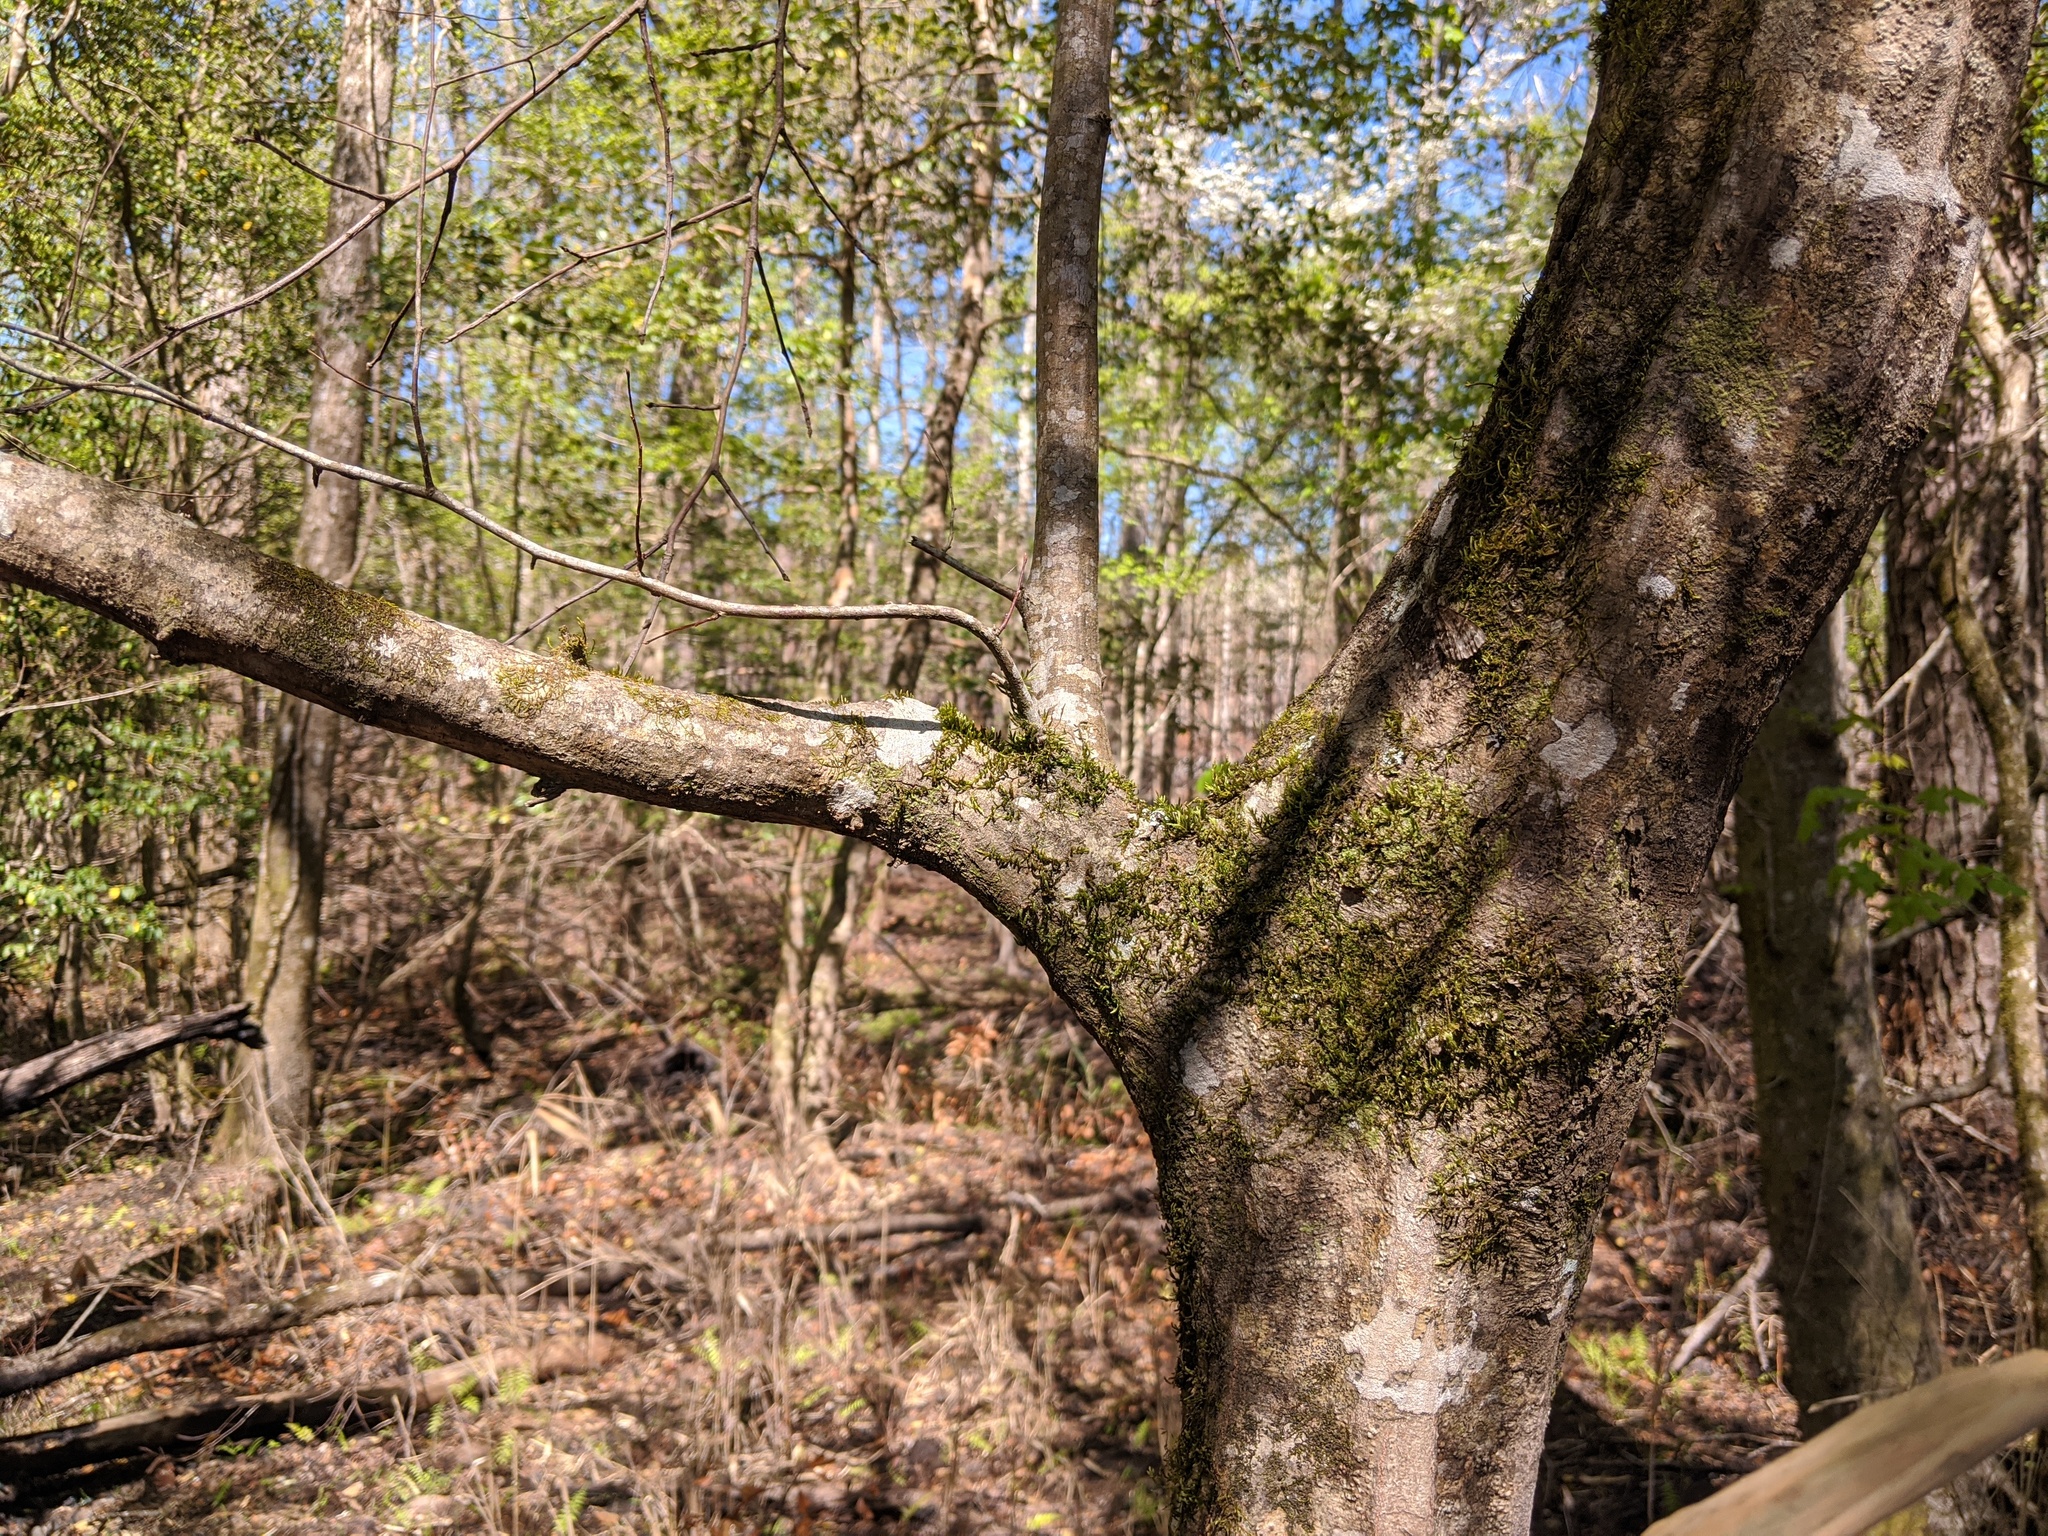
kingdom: Plantae
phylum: Tracheophyta
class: Magnoliopsida
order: Fagales
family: Betulaceae
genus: Carpinus
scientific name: Carpinus caroliniana
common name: American hornbeam
